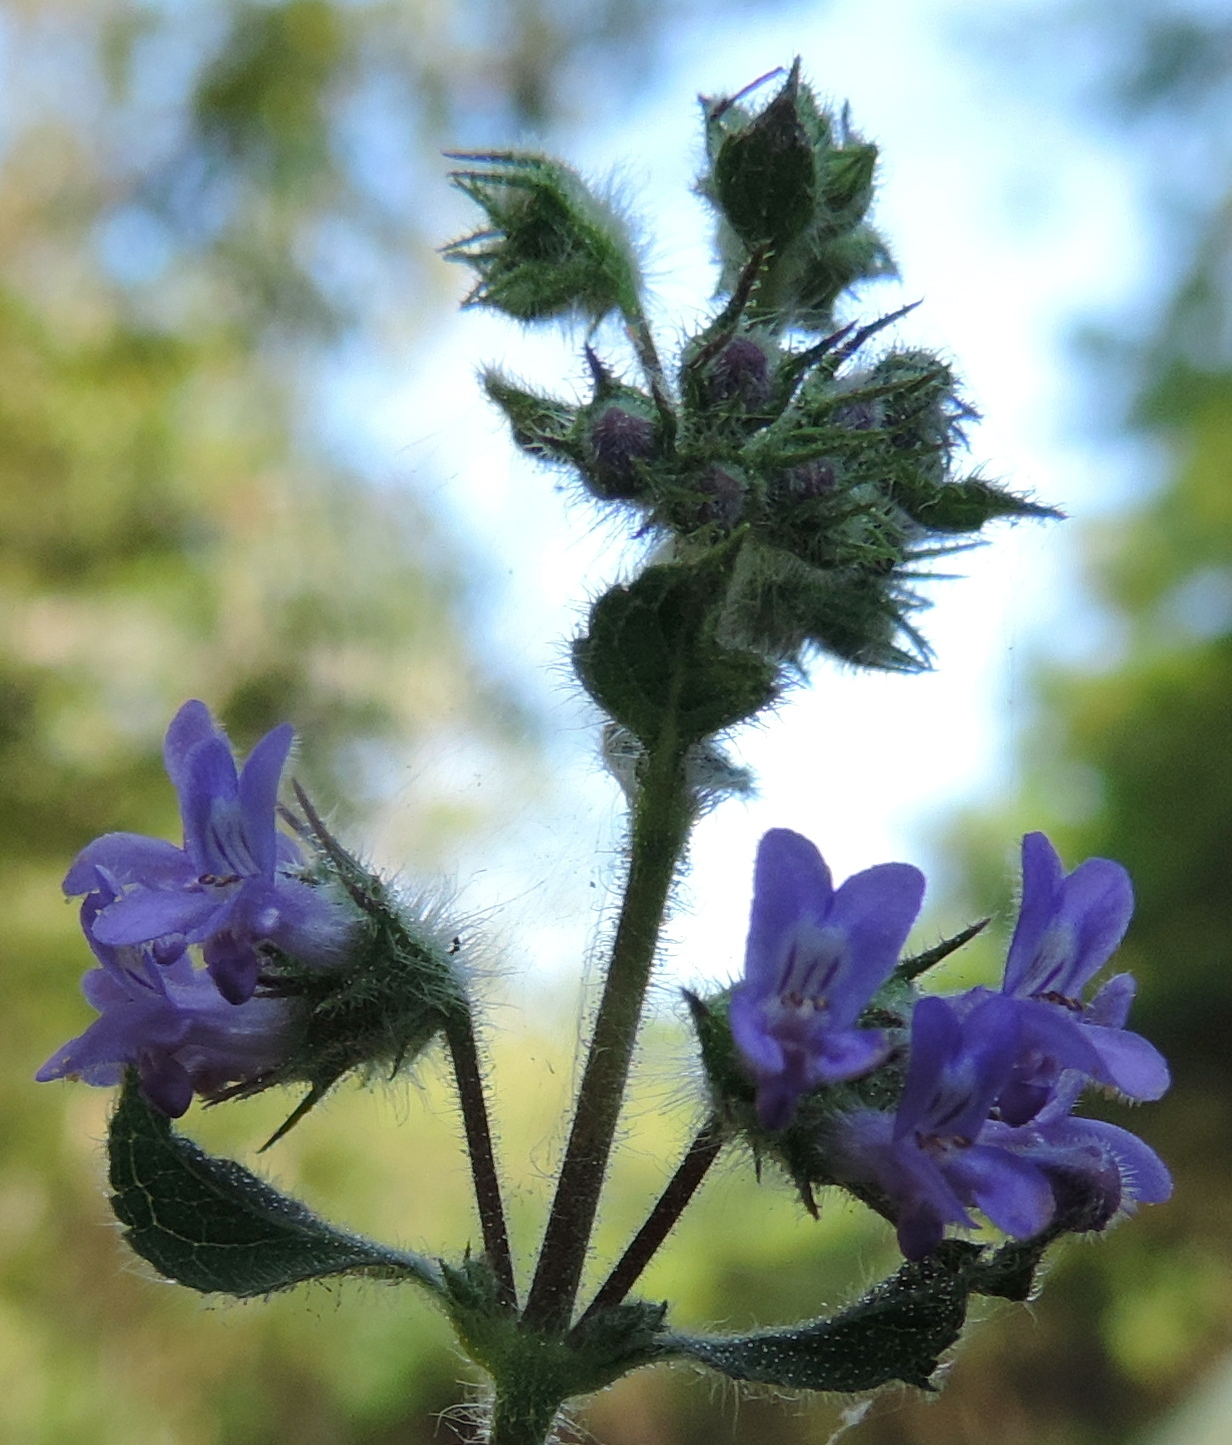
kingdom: Plantae
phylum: Tracheophyta
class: Magnoliopsida
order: Lamiales
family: Lamiaceae
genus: Mesosphaerum
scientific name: Mesosphaerum suaveolens
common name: Pignut
